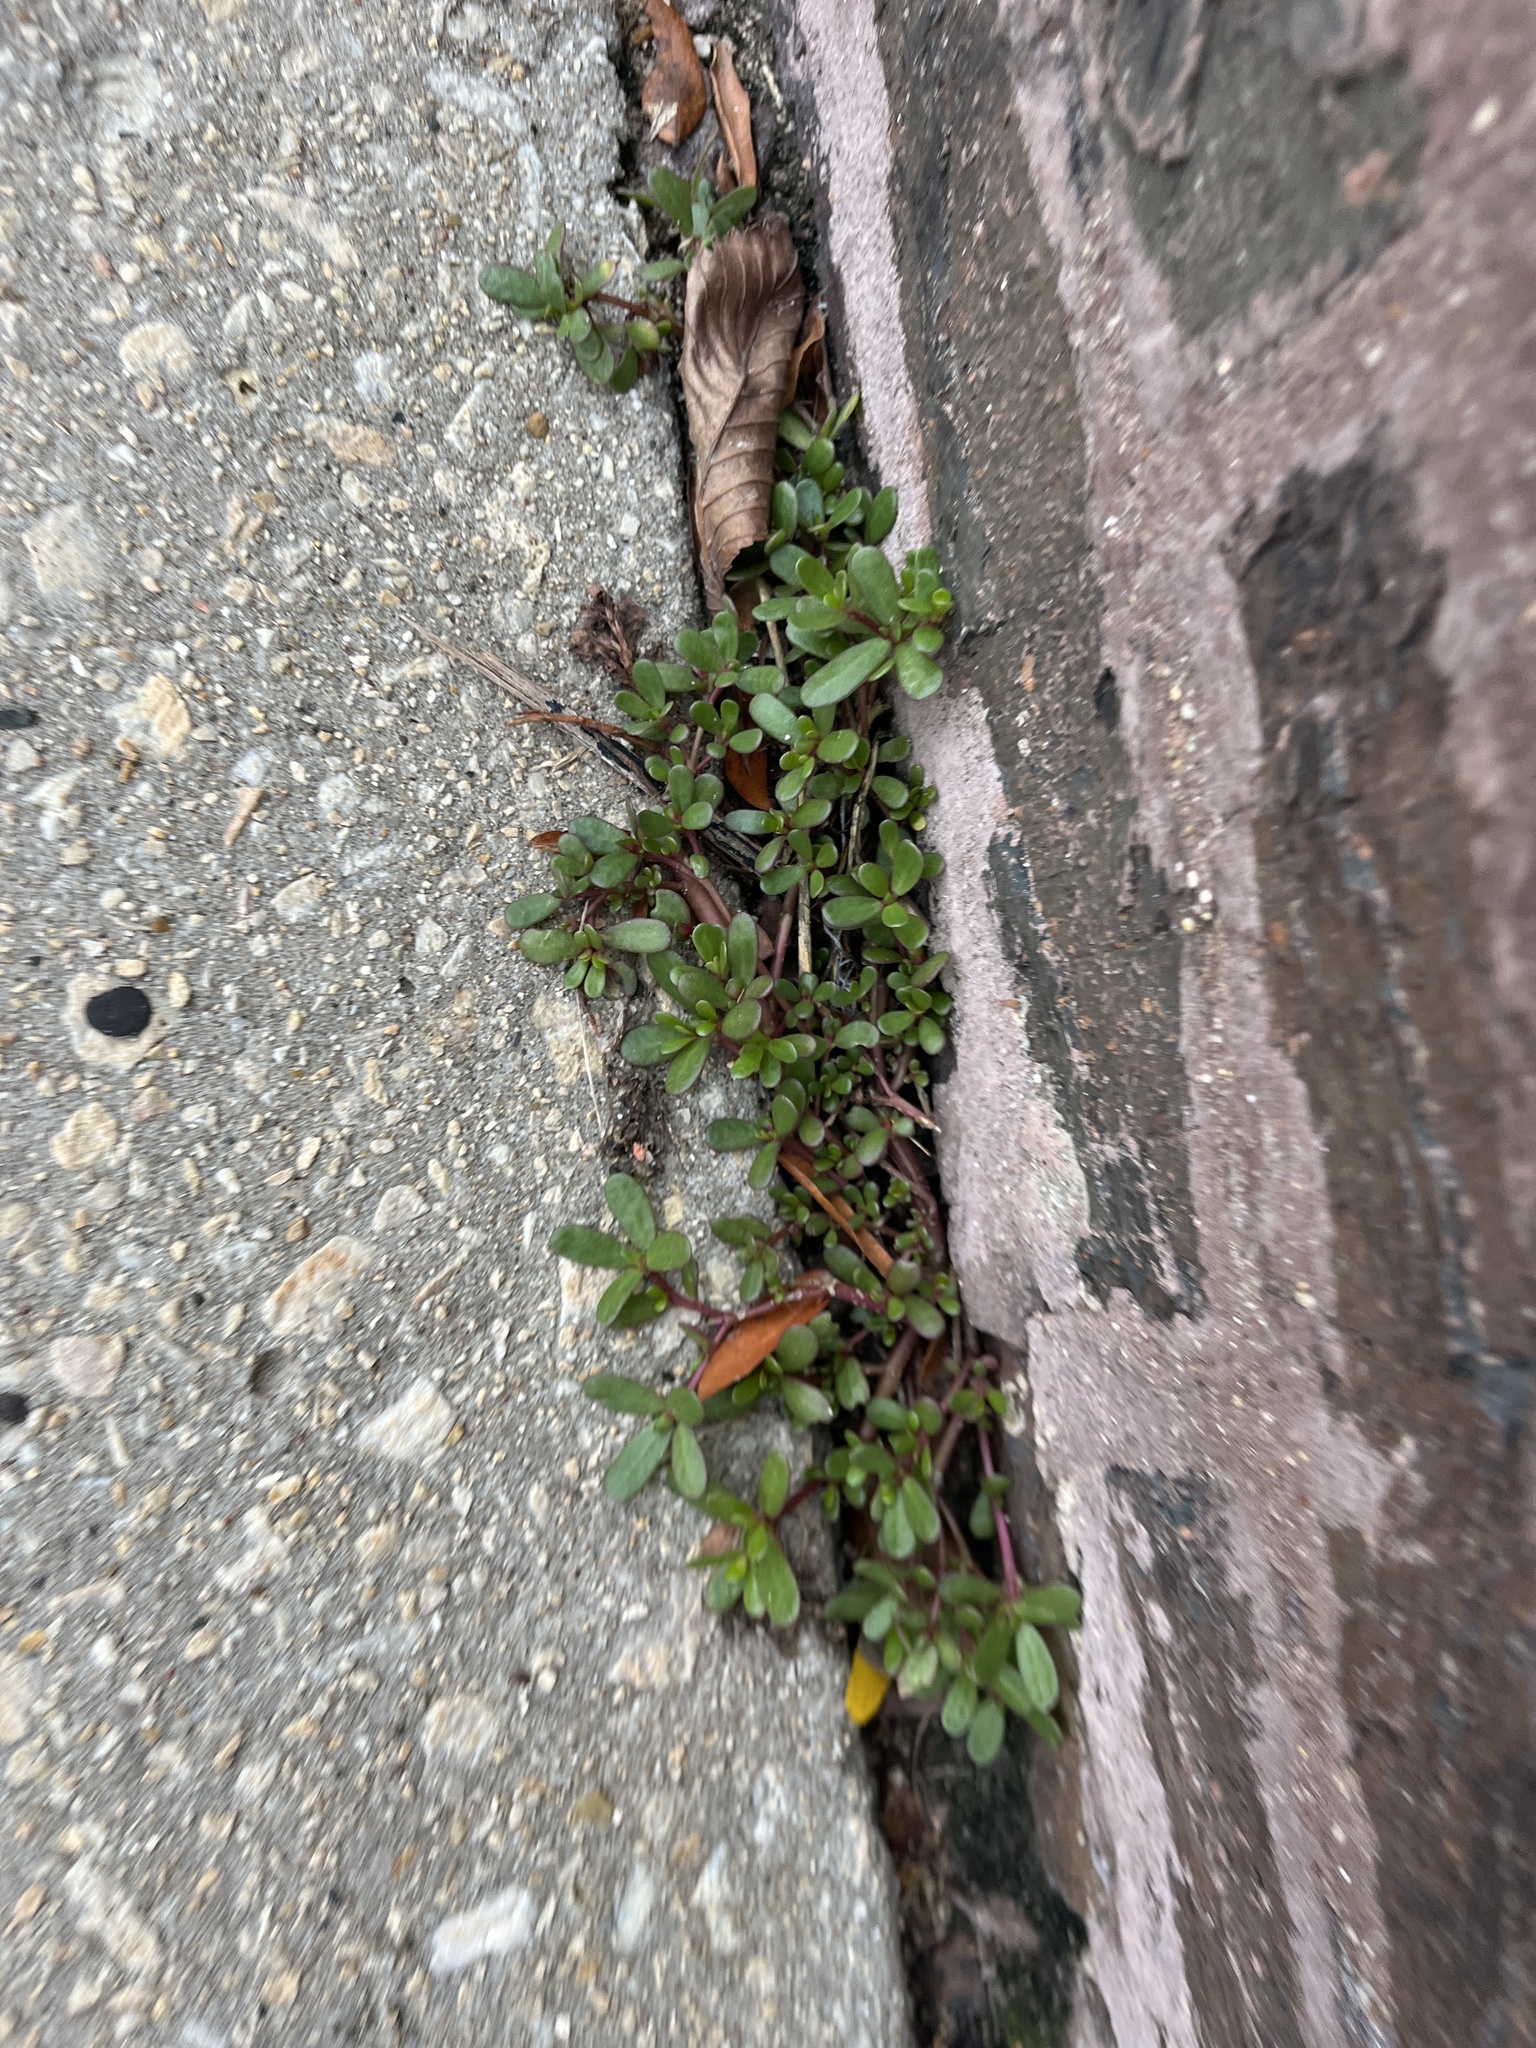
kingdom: Plantae
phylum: Tracheophyta
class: Magnoliopsida
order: Caryophyllales
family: Portulacaceae
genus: Portulaca
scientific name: Portulaca oleracea
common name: Common purslane
